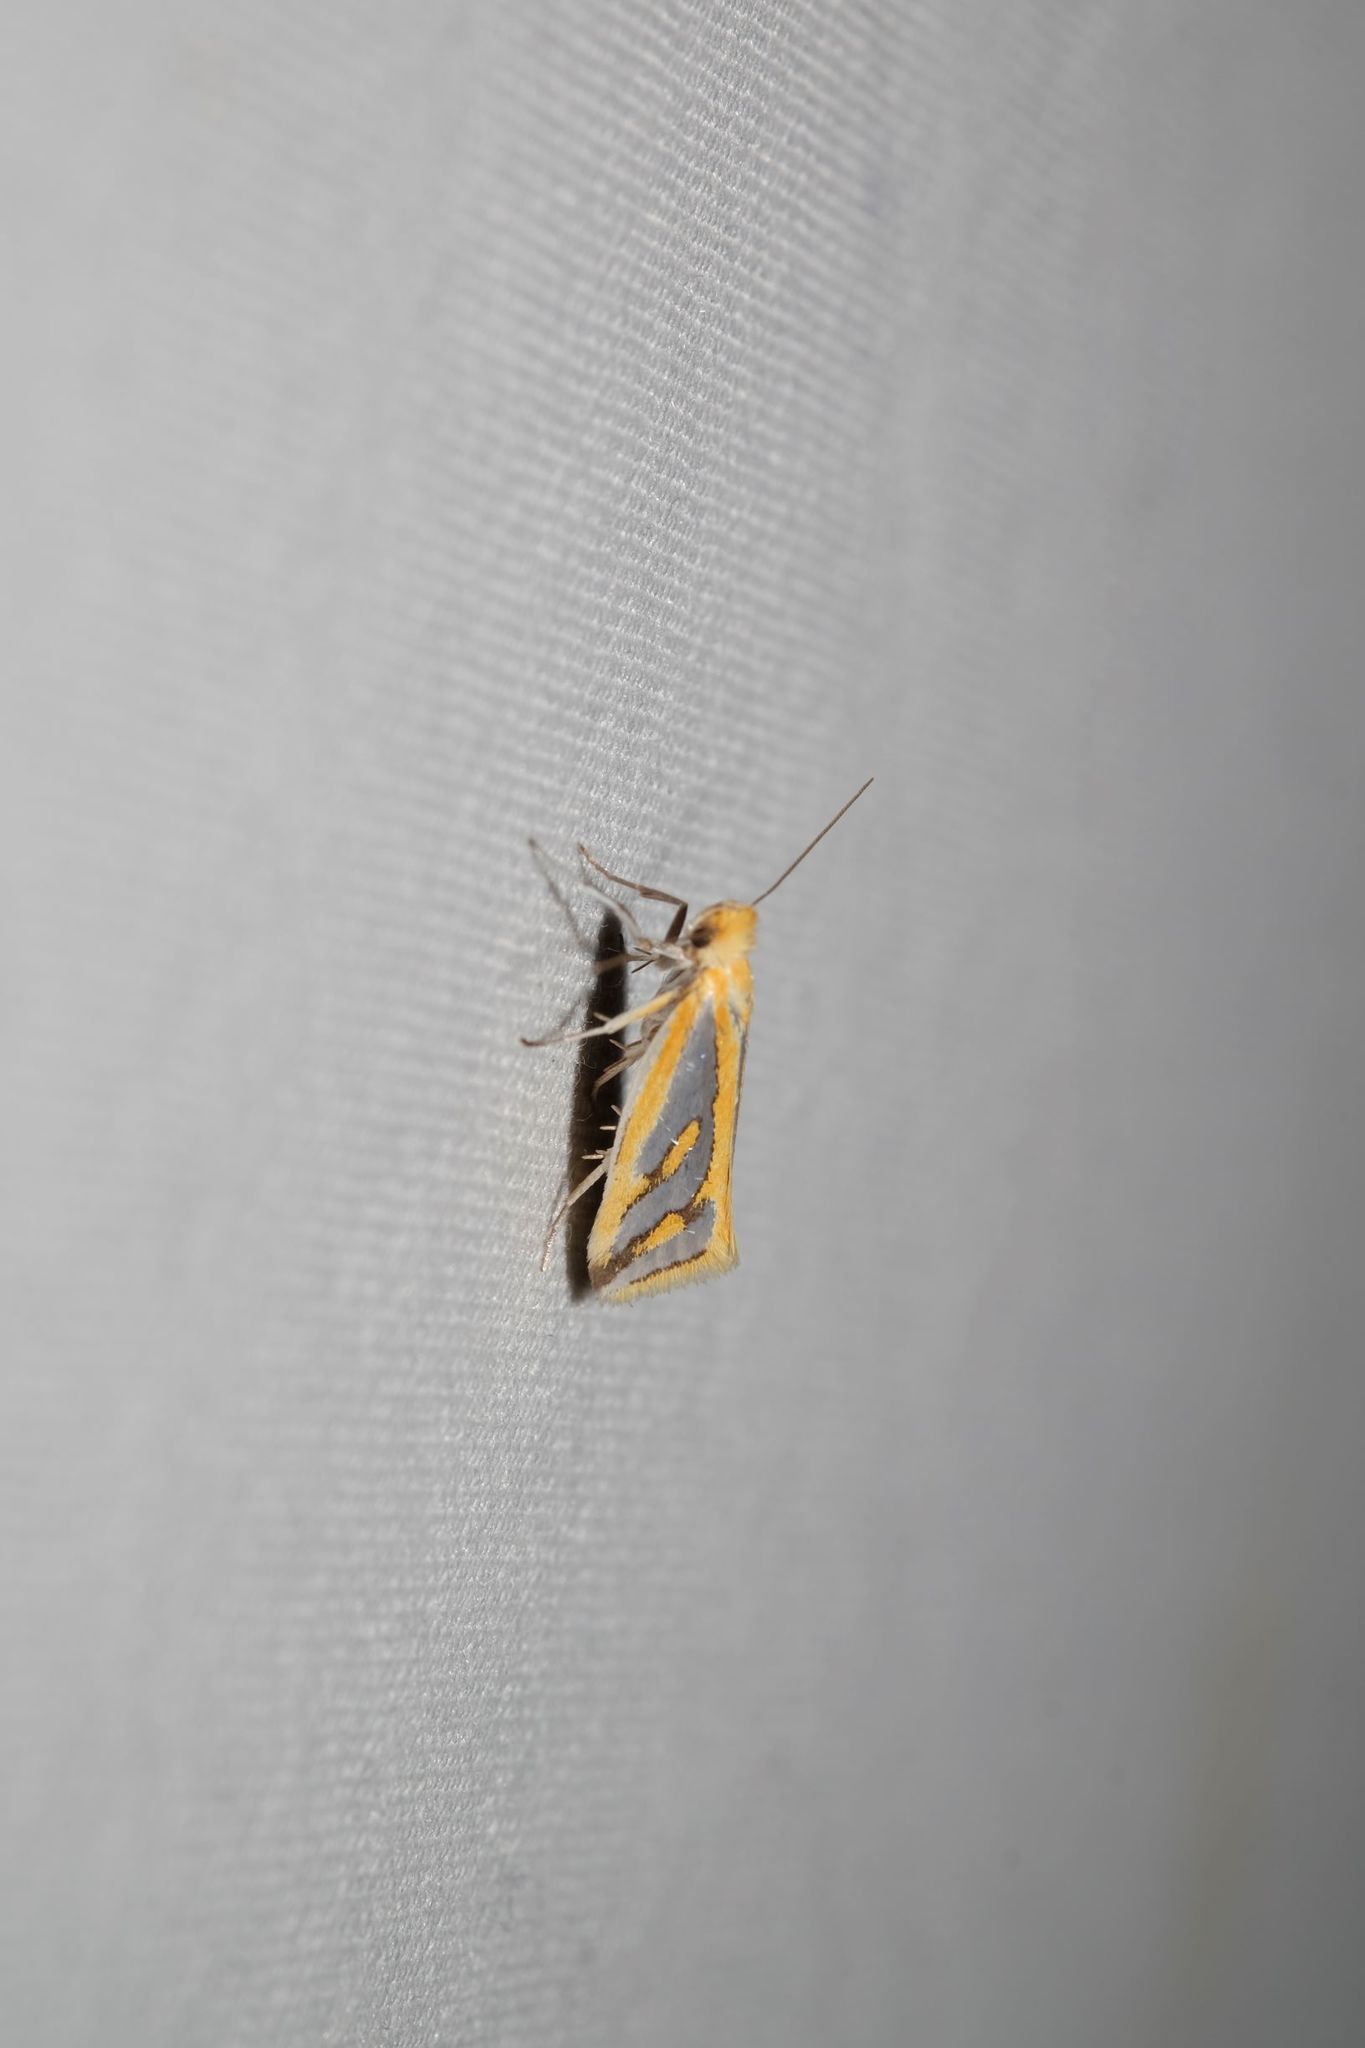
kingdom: Animalia
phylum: Arthropoda
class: Insecta
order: Lepidoptera
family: Depressariidae
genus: Thudaca
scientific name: Thudaca haplonota
